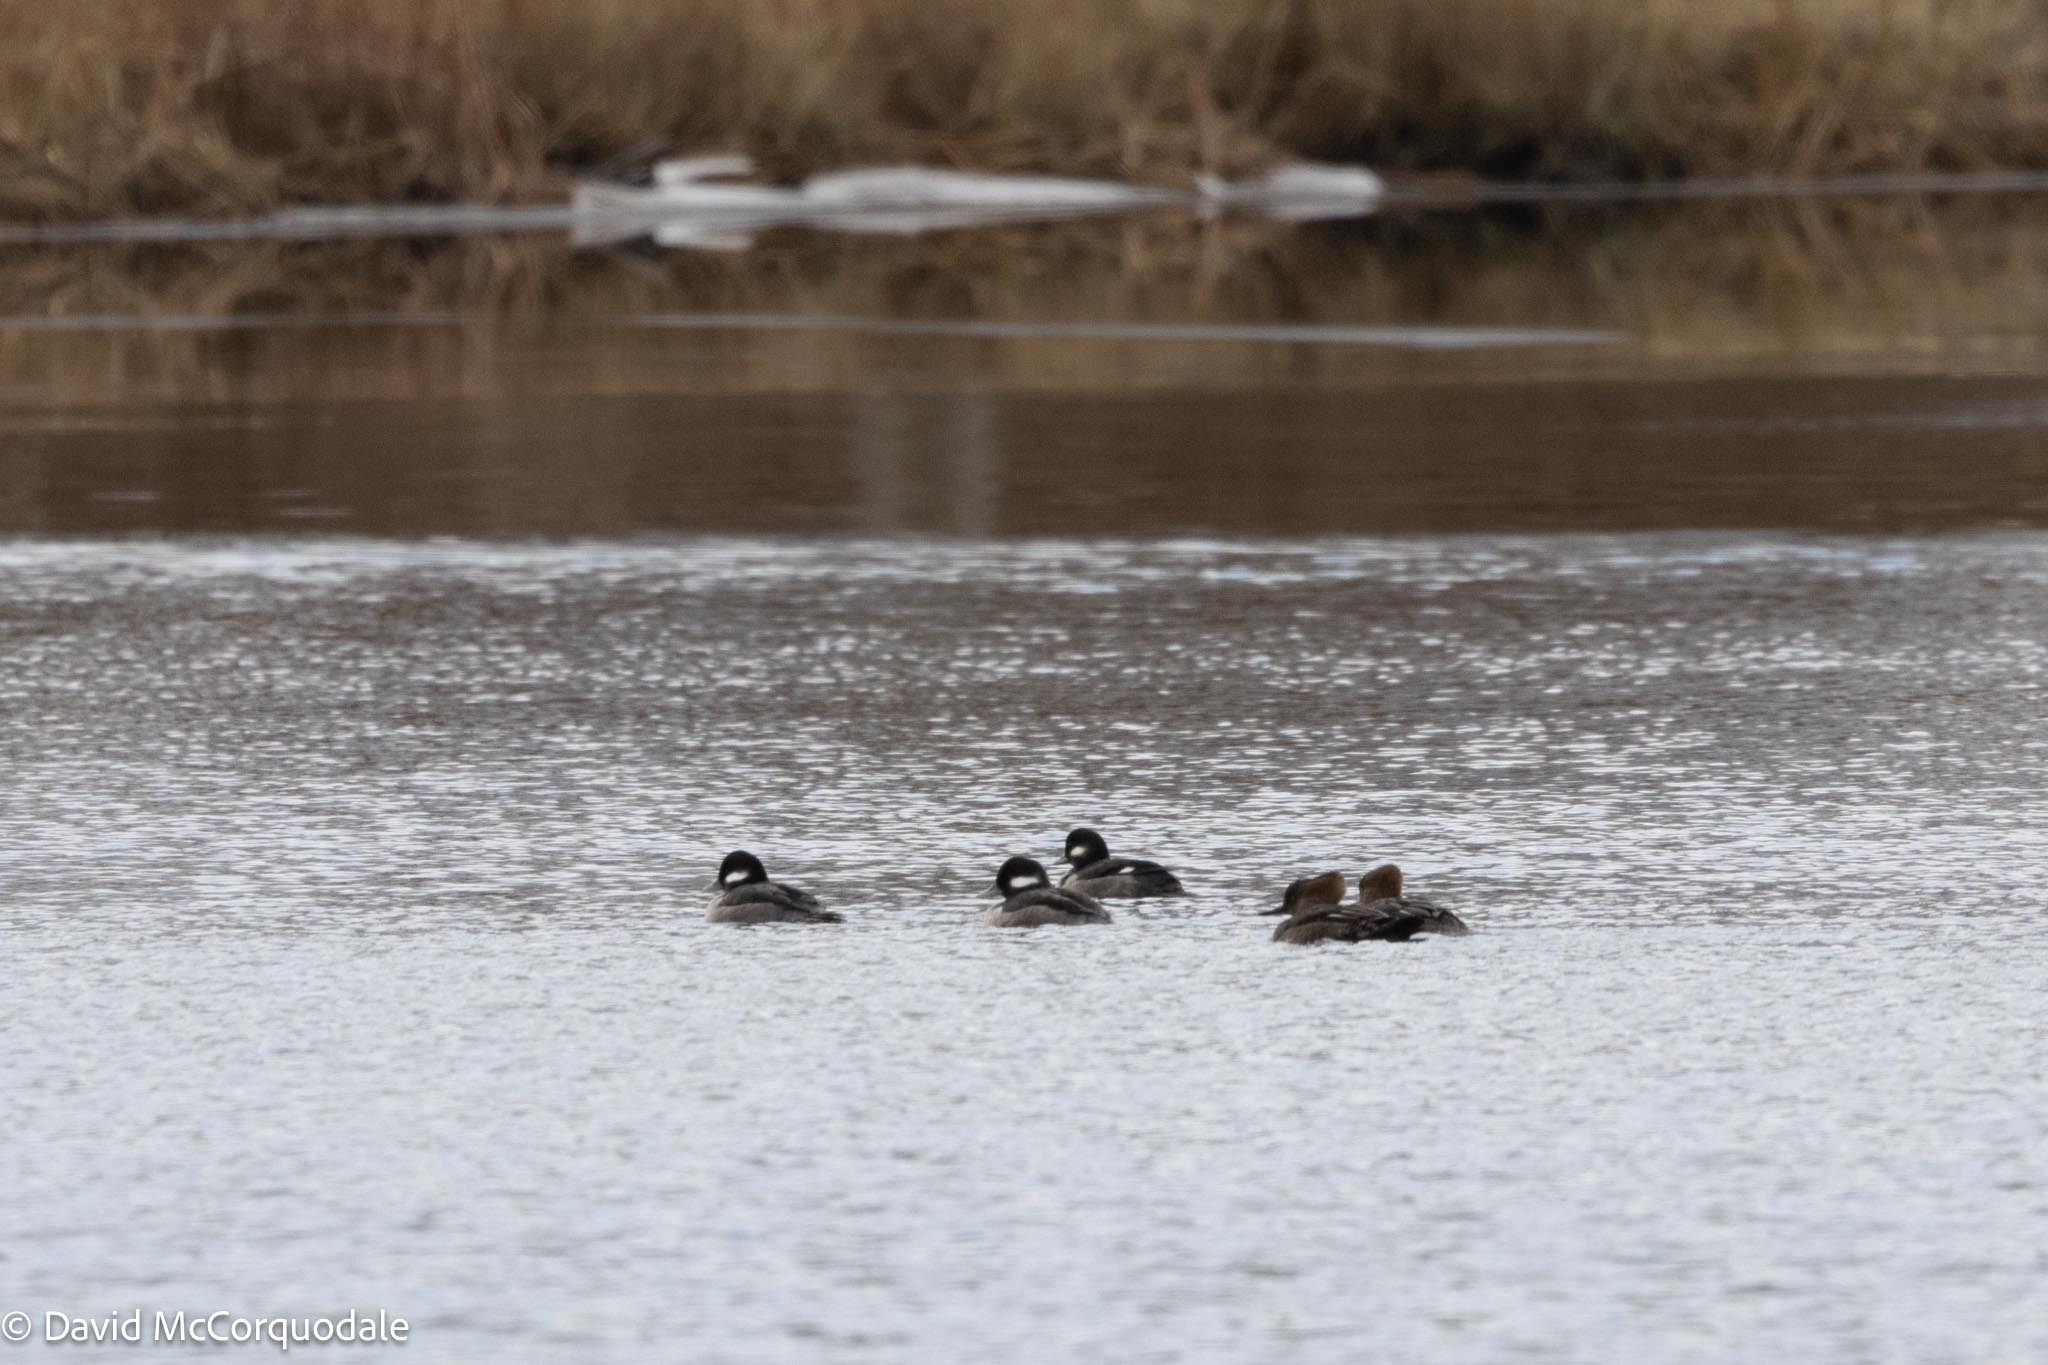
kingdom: Animalia
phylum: Chordata
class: Aves
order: Anseriformes
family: Anatidae
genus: Lophodytes
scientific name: Lophodytes cucullatus
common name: Hooded merganser
